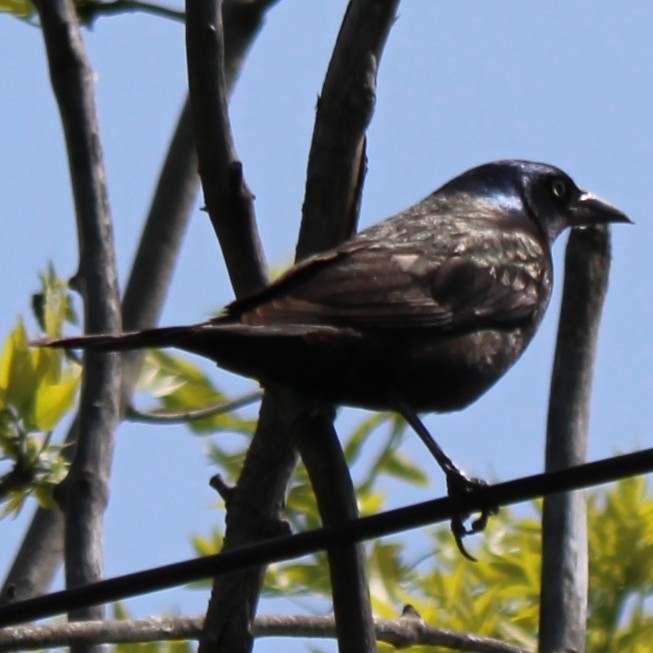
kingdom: Animalia
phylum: Chordata
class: Aves
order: Passeriformes
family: Icteridae
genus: Quiscalus
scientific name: Quiscalus quiscula
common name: Common grackle
